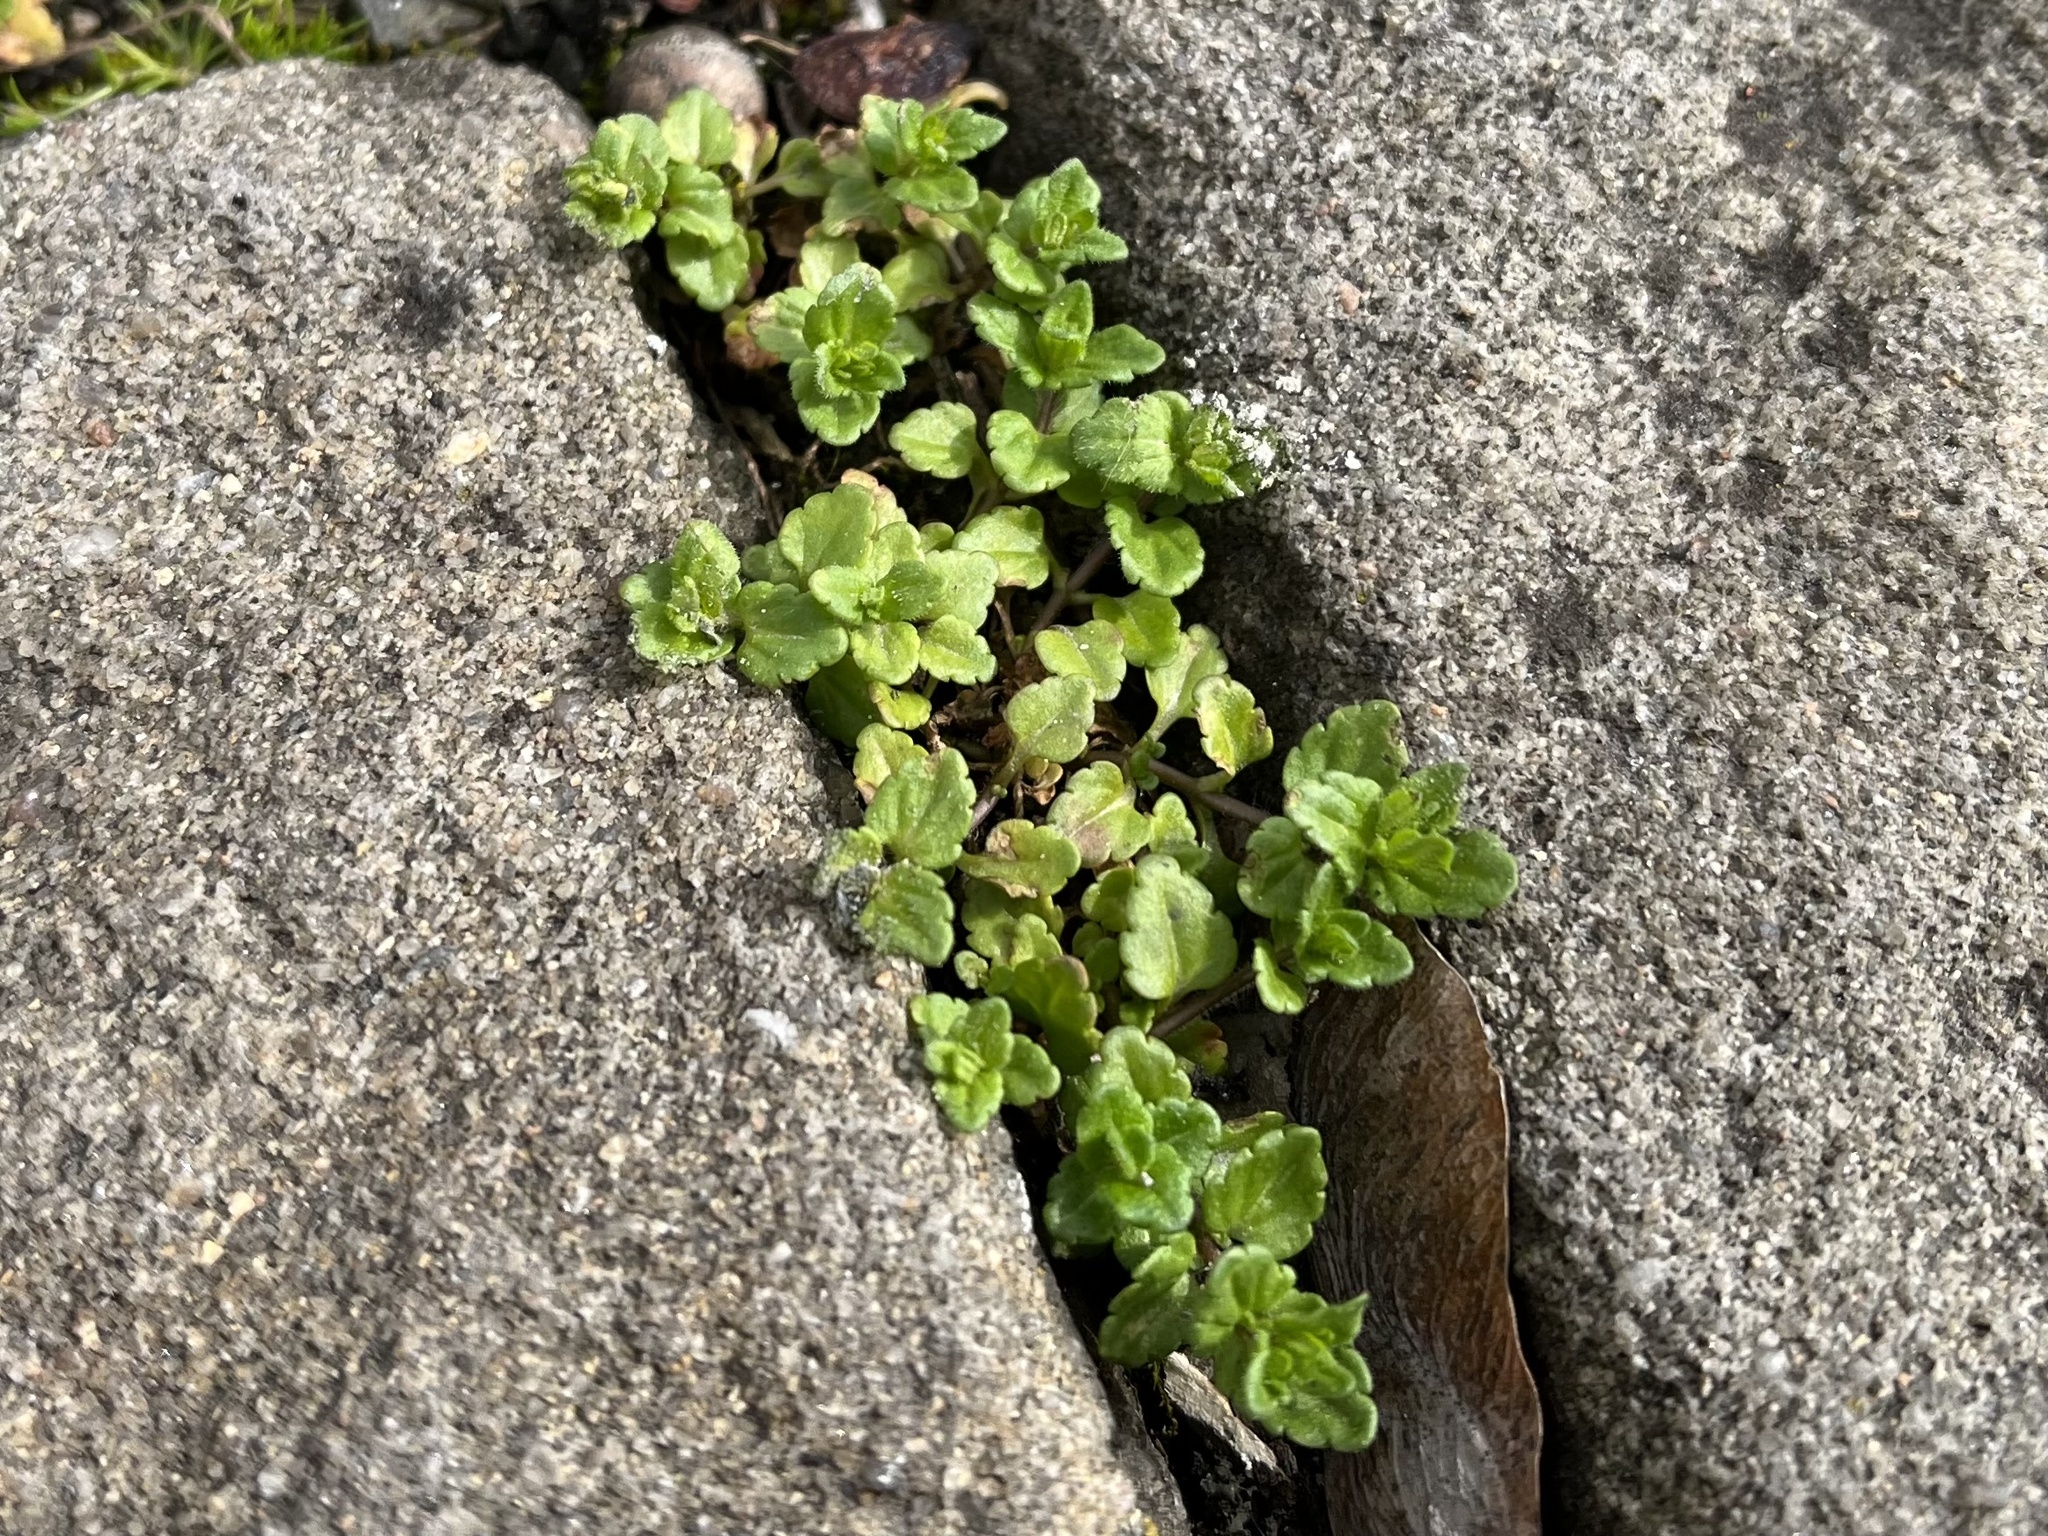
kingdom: Plantae
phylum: Tracheophyta
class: Magnoliopsida
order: Lamiales
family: Plantaginaceae
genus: Veronica
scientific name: Veronica arvensis
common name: Corn speedwell
